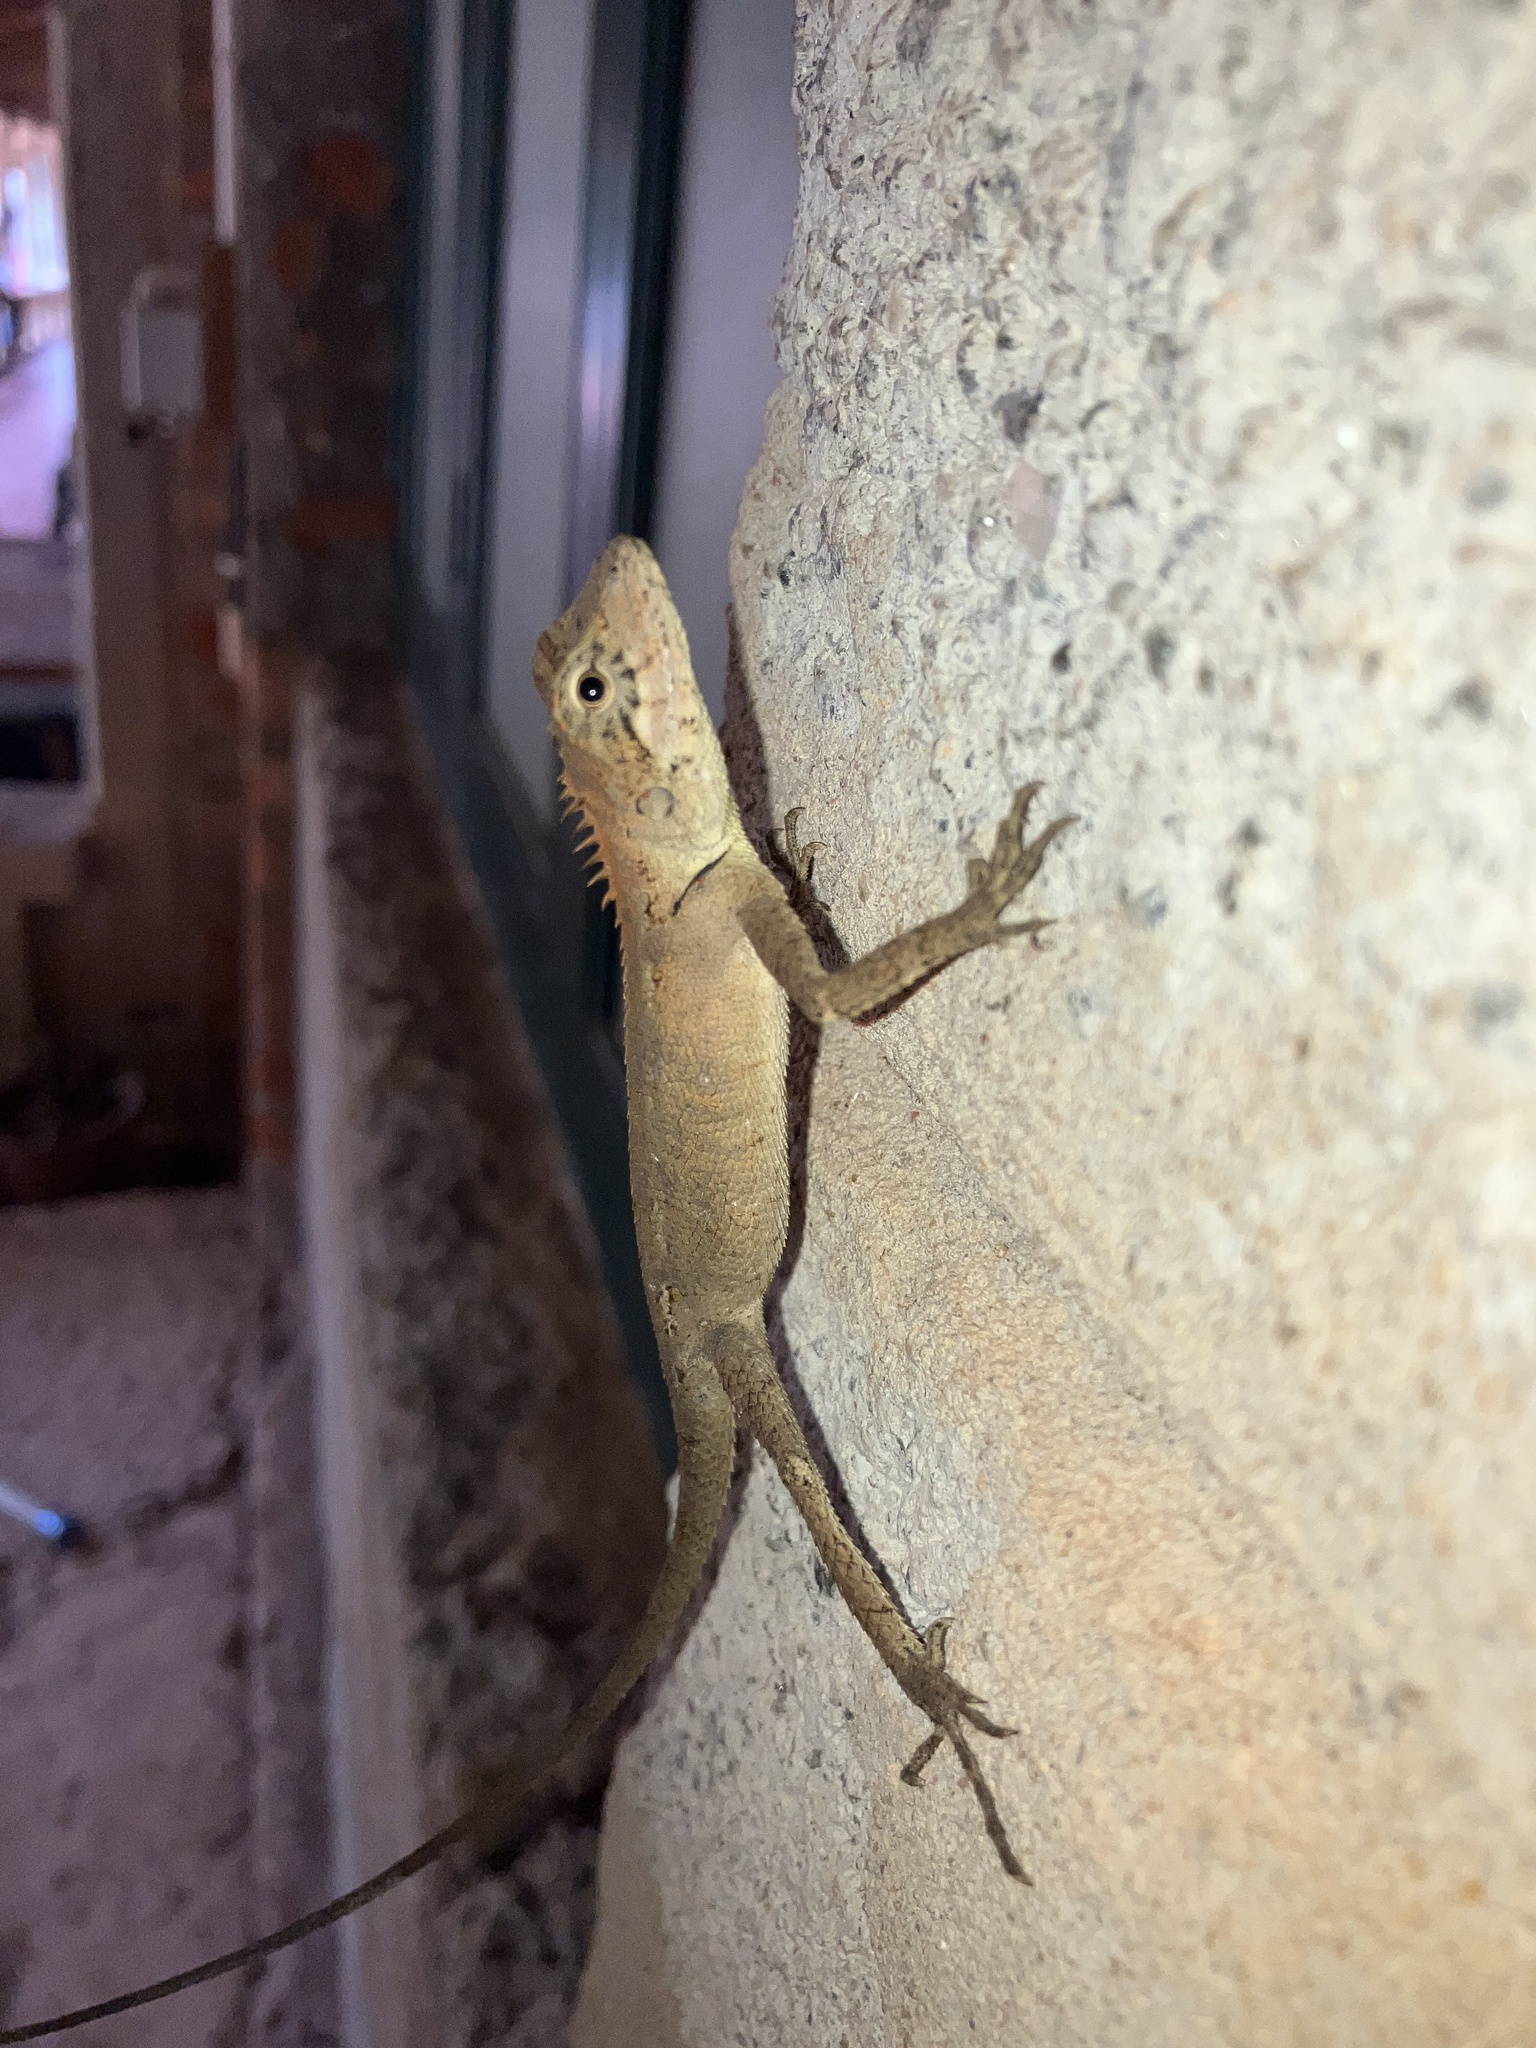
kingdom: Animalia
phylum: Chordata
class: Squamata
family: Agamidae
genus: Monilesaurus
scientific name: Monilesaurus rouxii
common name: Roux's forest lizard
